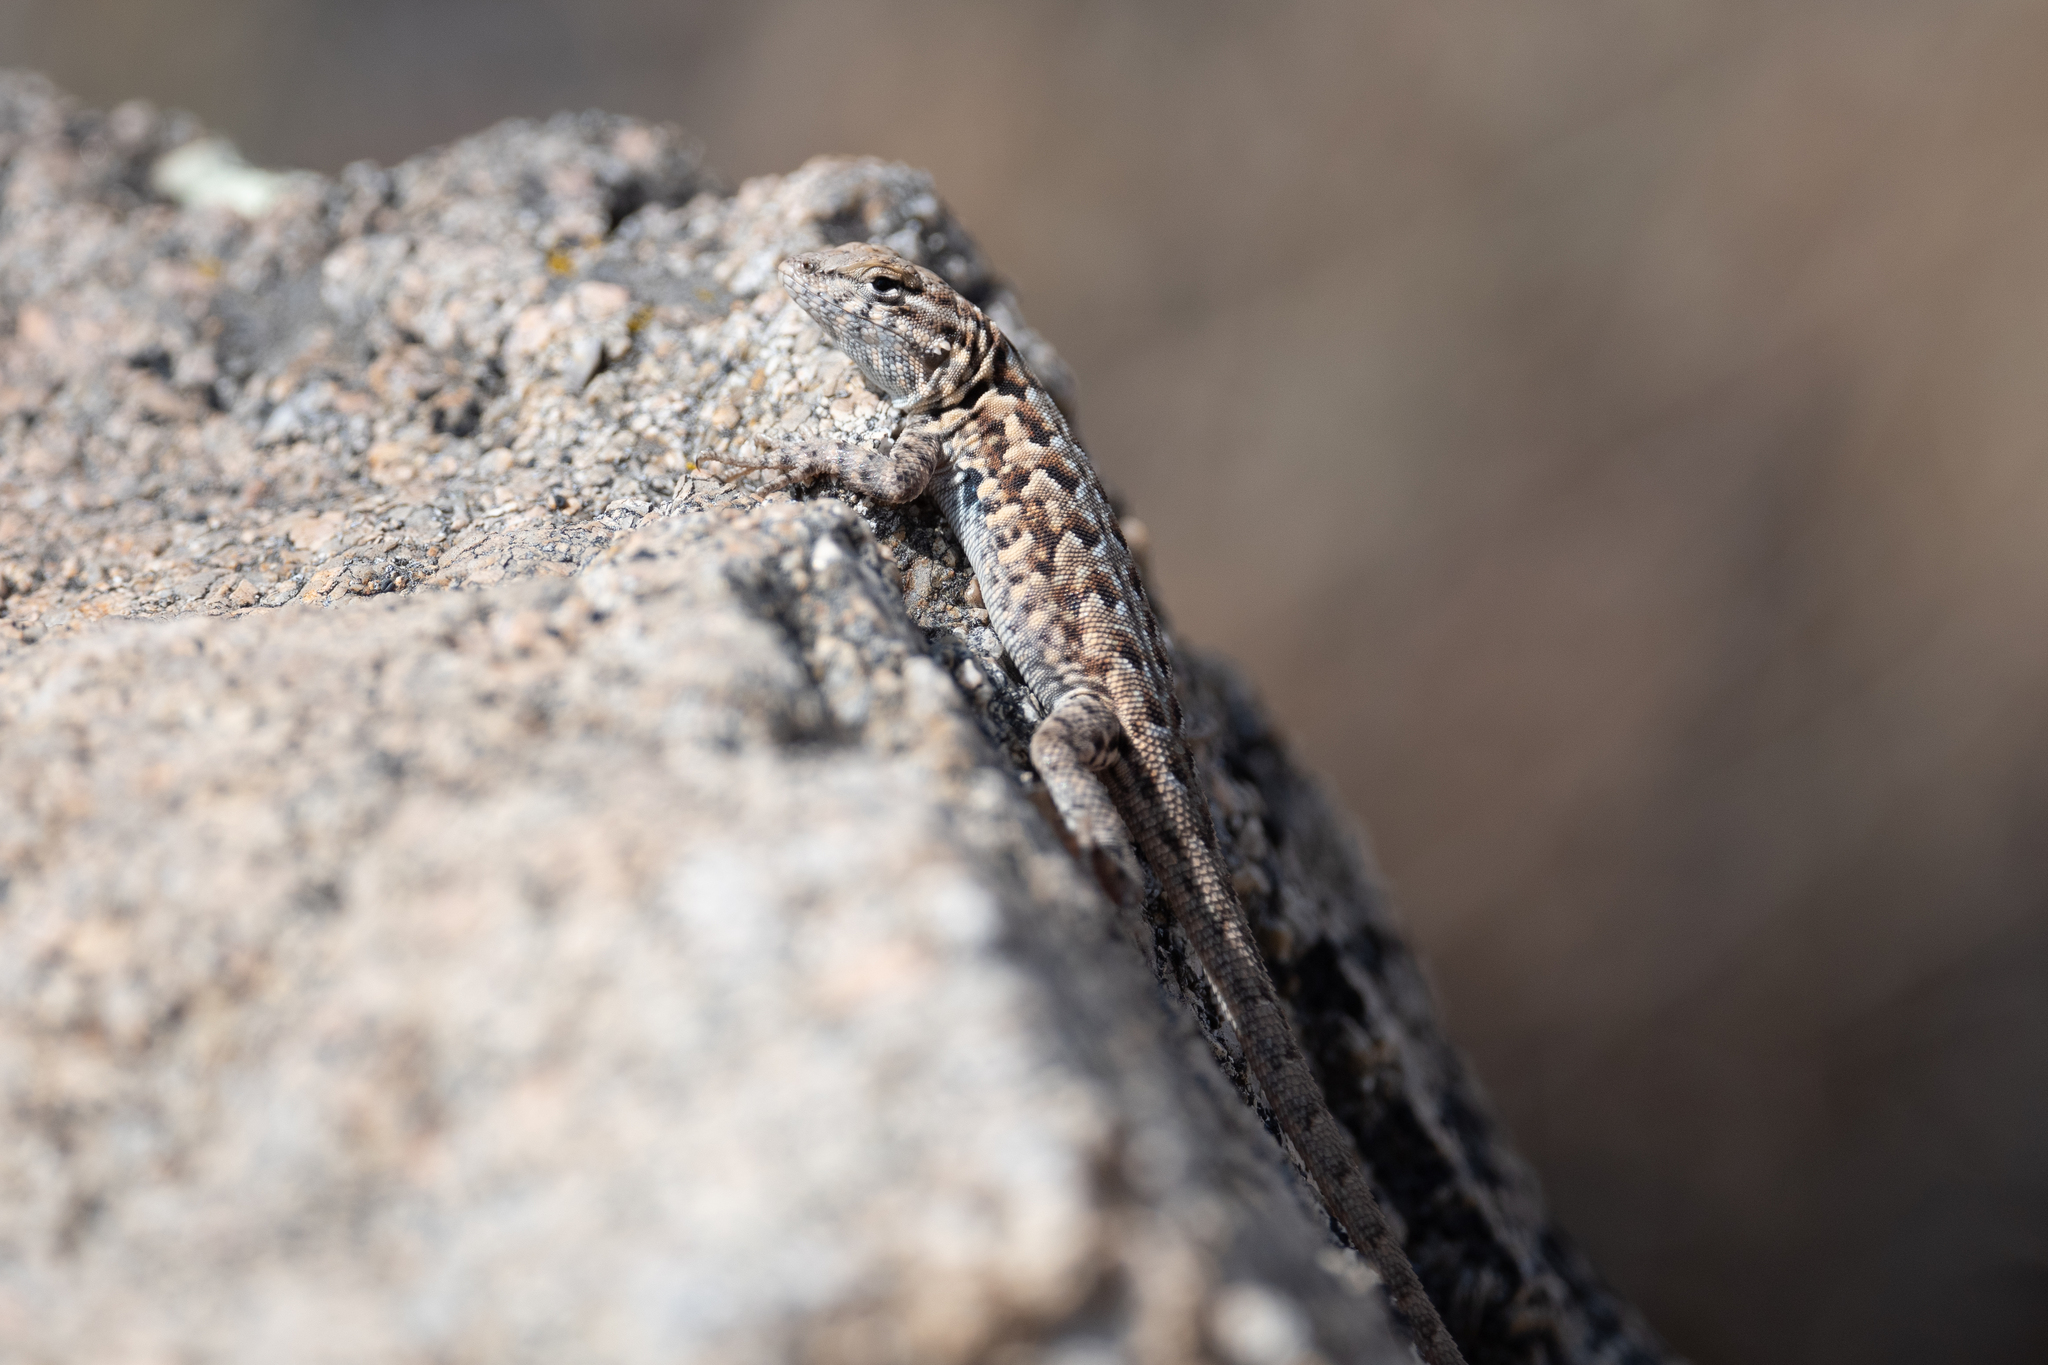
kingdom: Animalia
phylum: Chordata
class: Squamata
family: Phrynosomatidae
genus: Uta
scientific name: Uta stansburiana
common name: Side-blotched lizard
